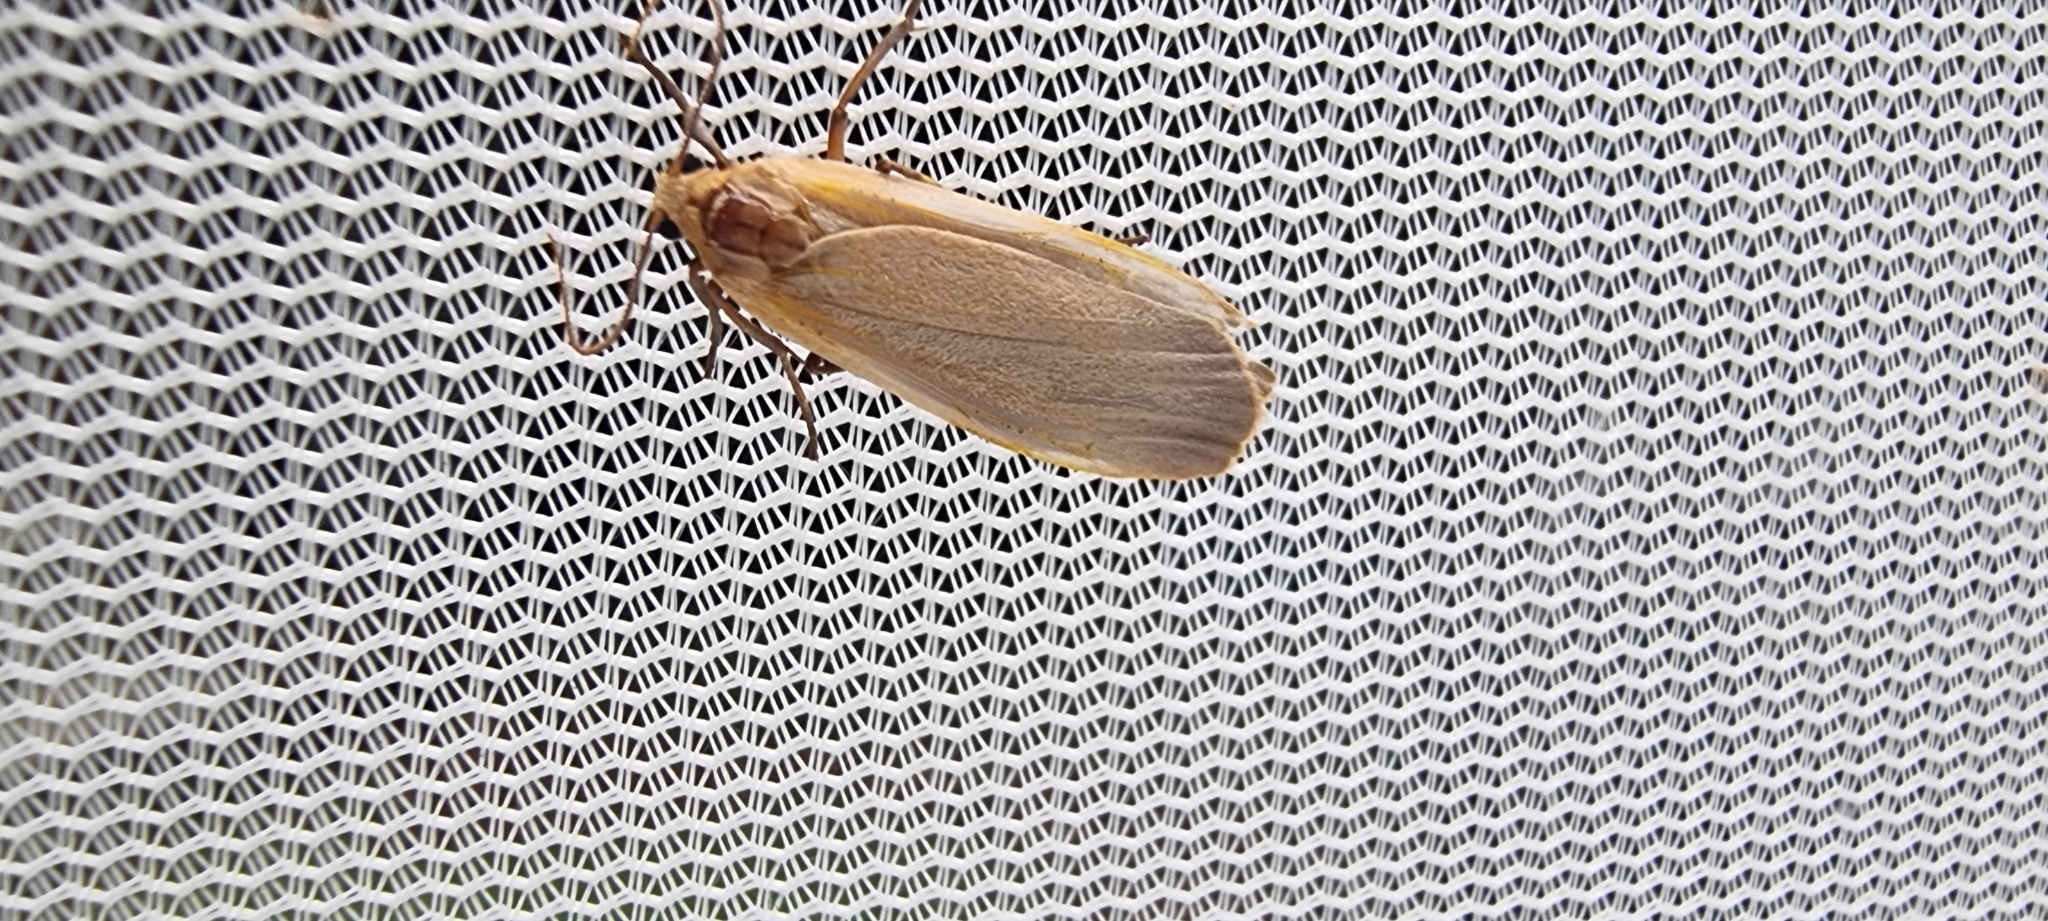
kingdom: Animalia
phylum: Arthropoda
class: Insecta
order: Lepidoptera
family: Erebidae
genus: Katha
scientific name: Katha depressa
